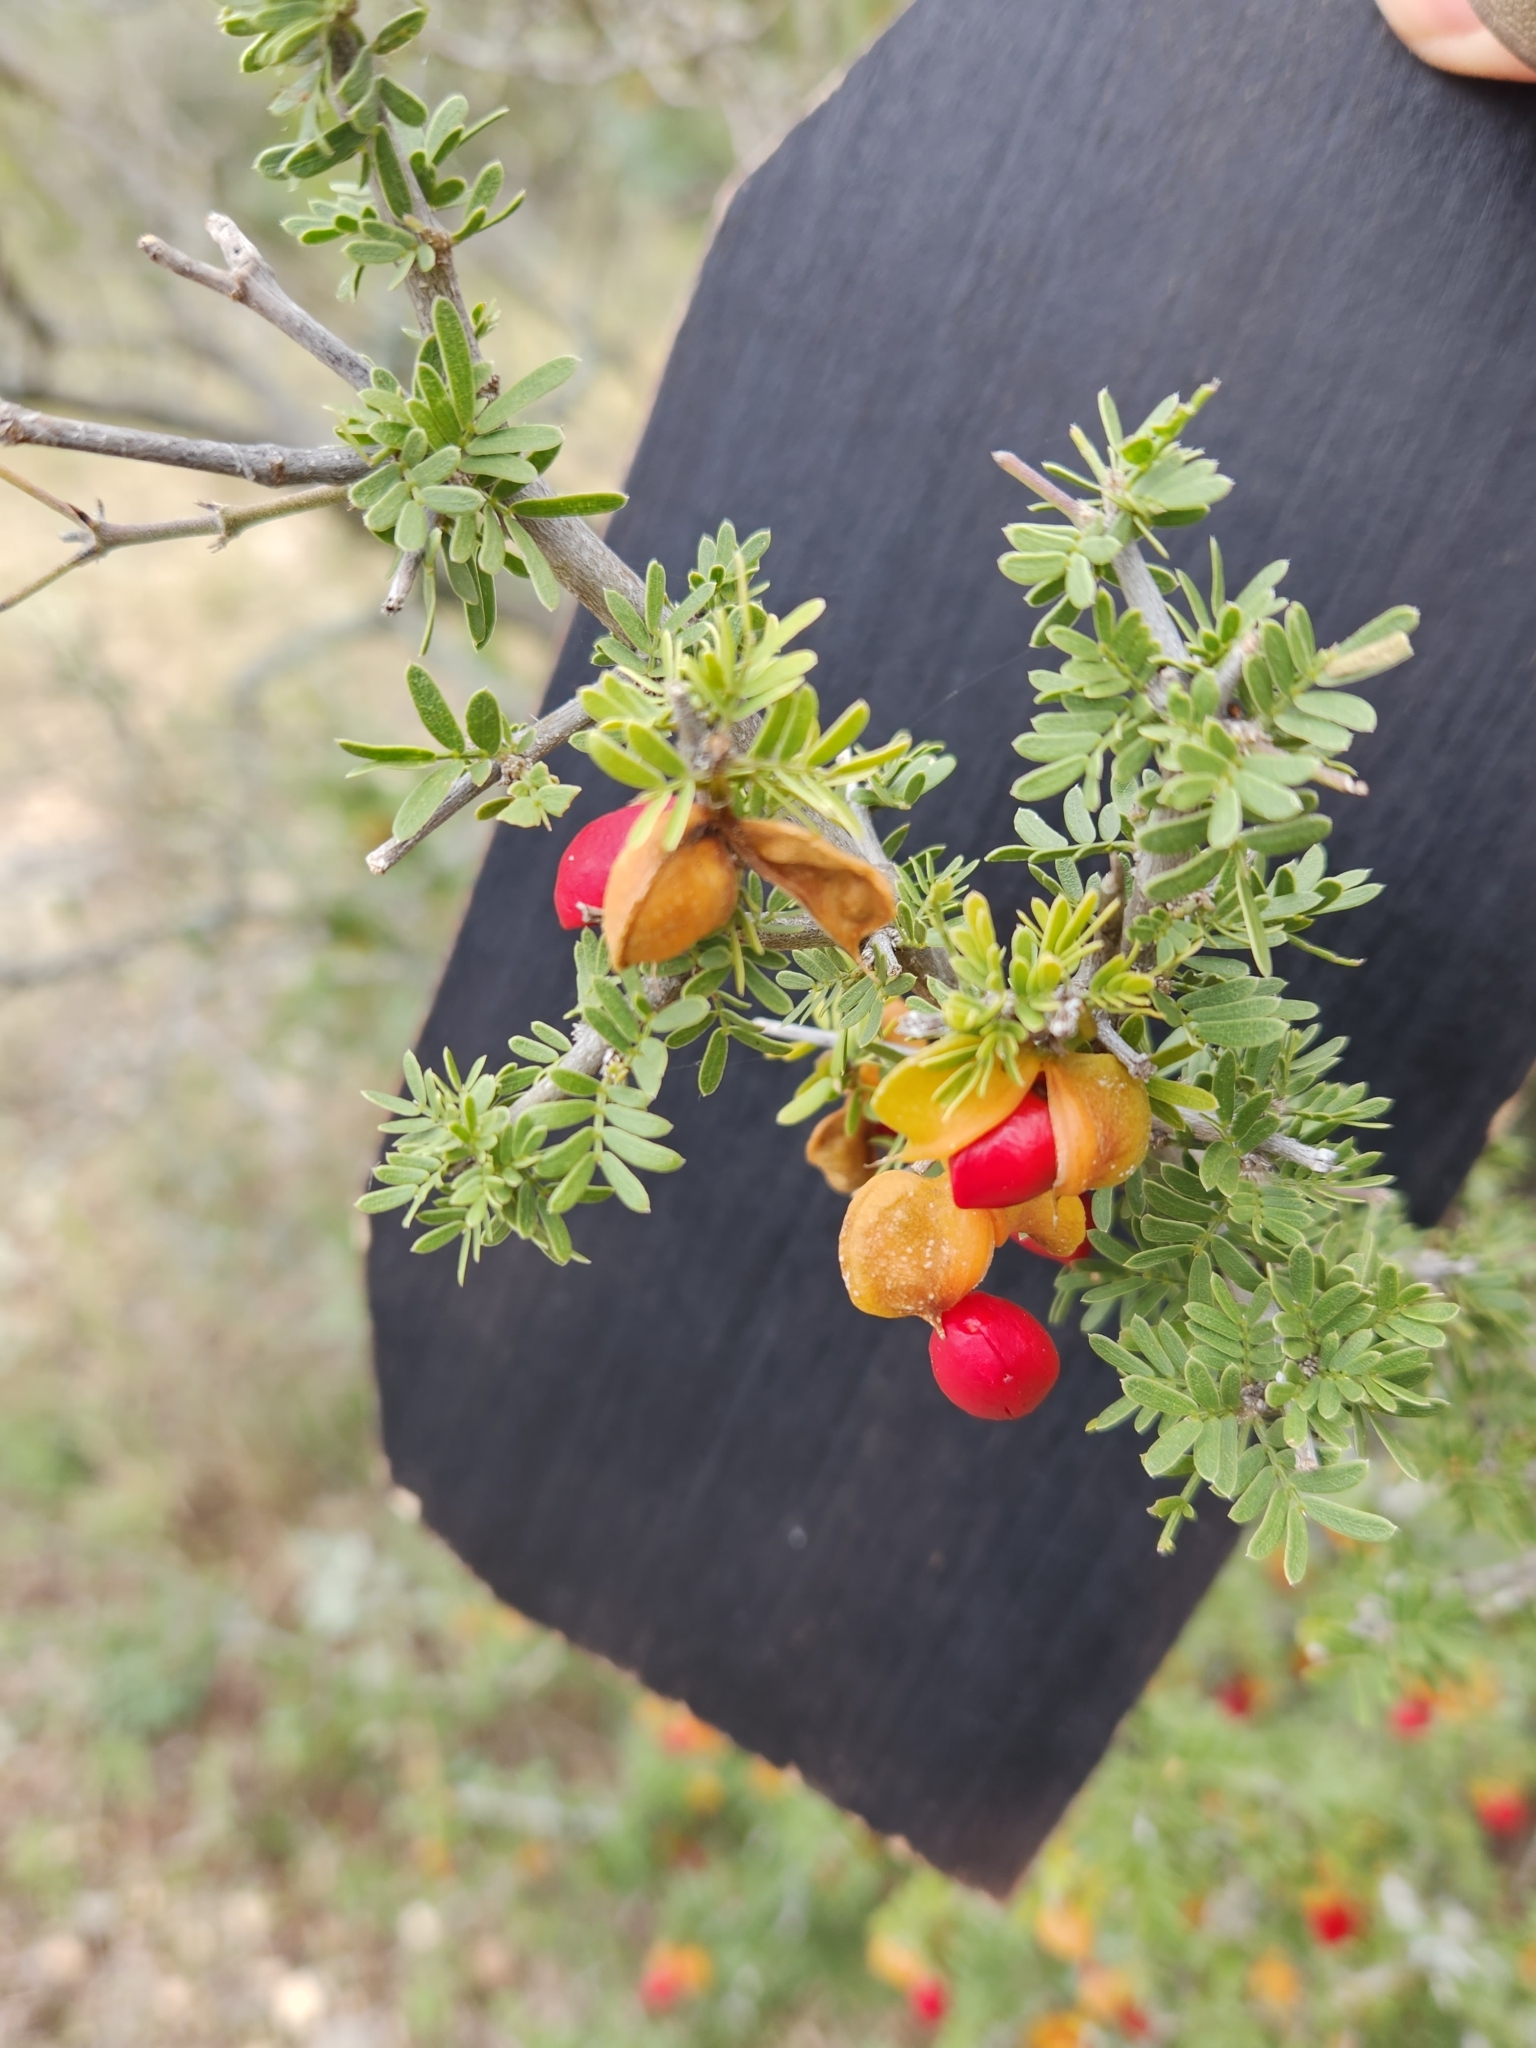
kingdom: Plantae
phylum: Tracheophyta
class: Magnoliopsida
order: Zygophyllales
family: Zygophyllaceae
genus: Porlieria
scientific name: Porlieria angustifolia
